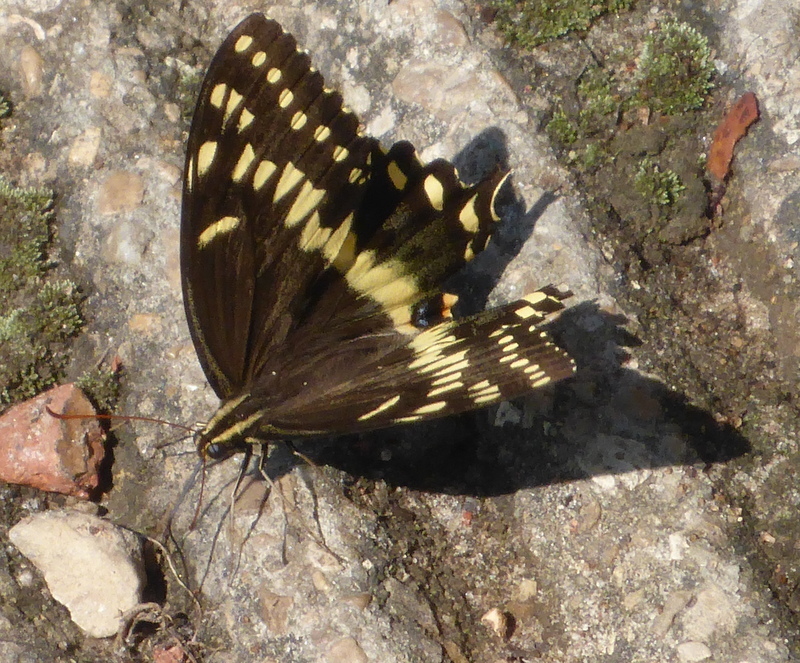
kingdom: Animalia
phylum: Arthropoda
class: Insecta
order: Lepidoptera
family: Papilionidae
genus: Papilio
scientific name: Papilio palamedes
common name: Palamedes swallowtail
